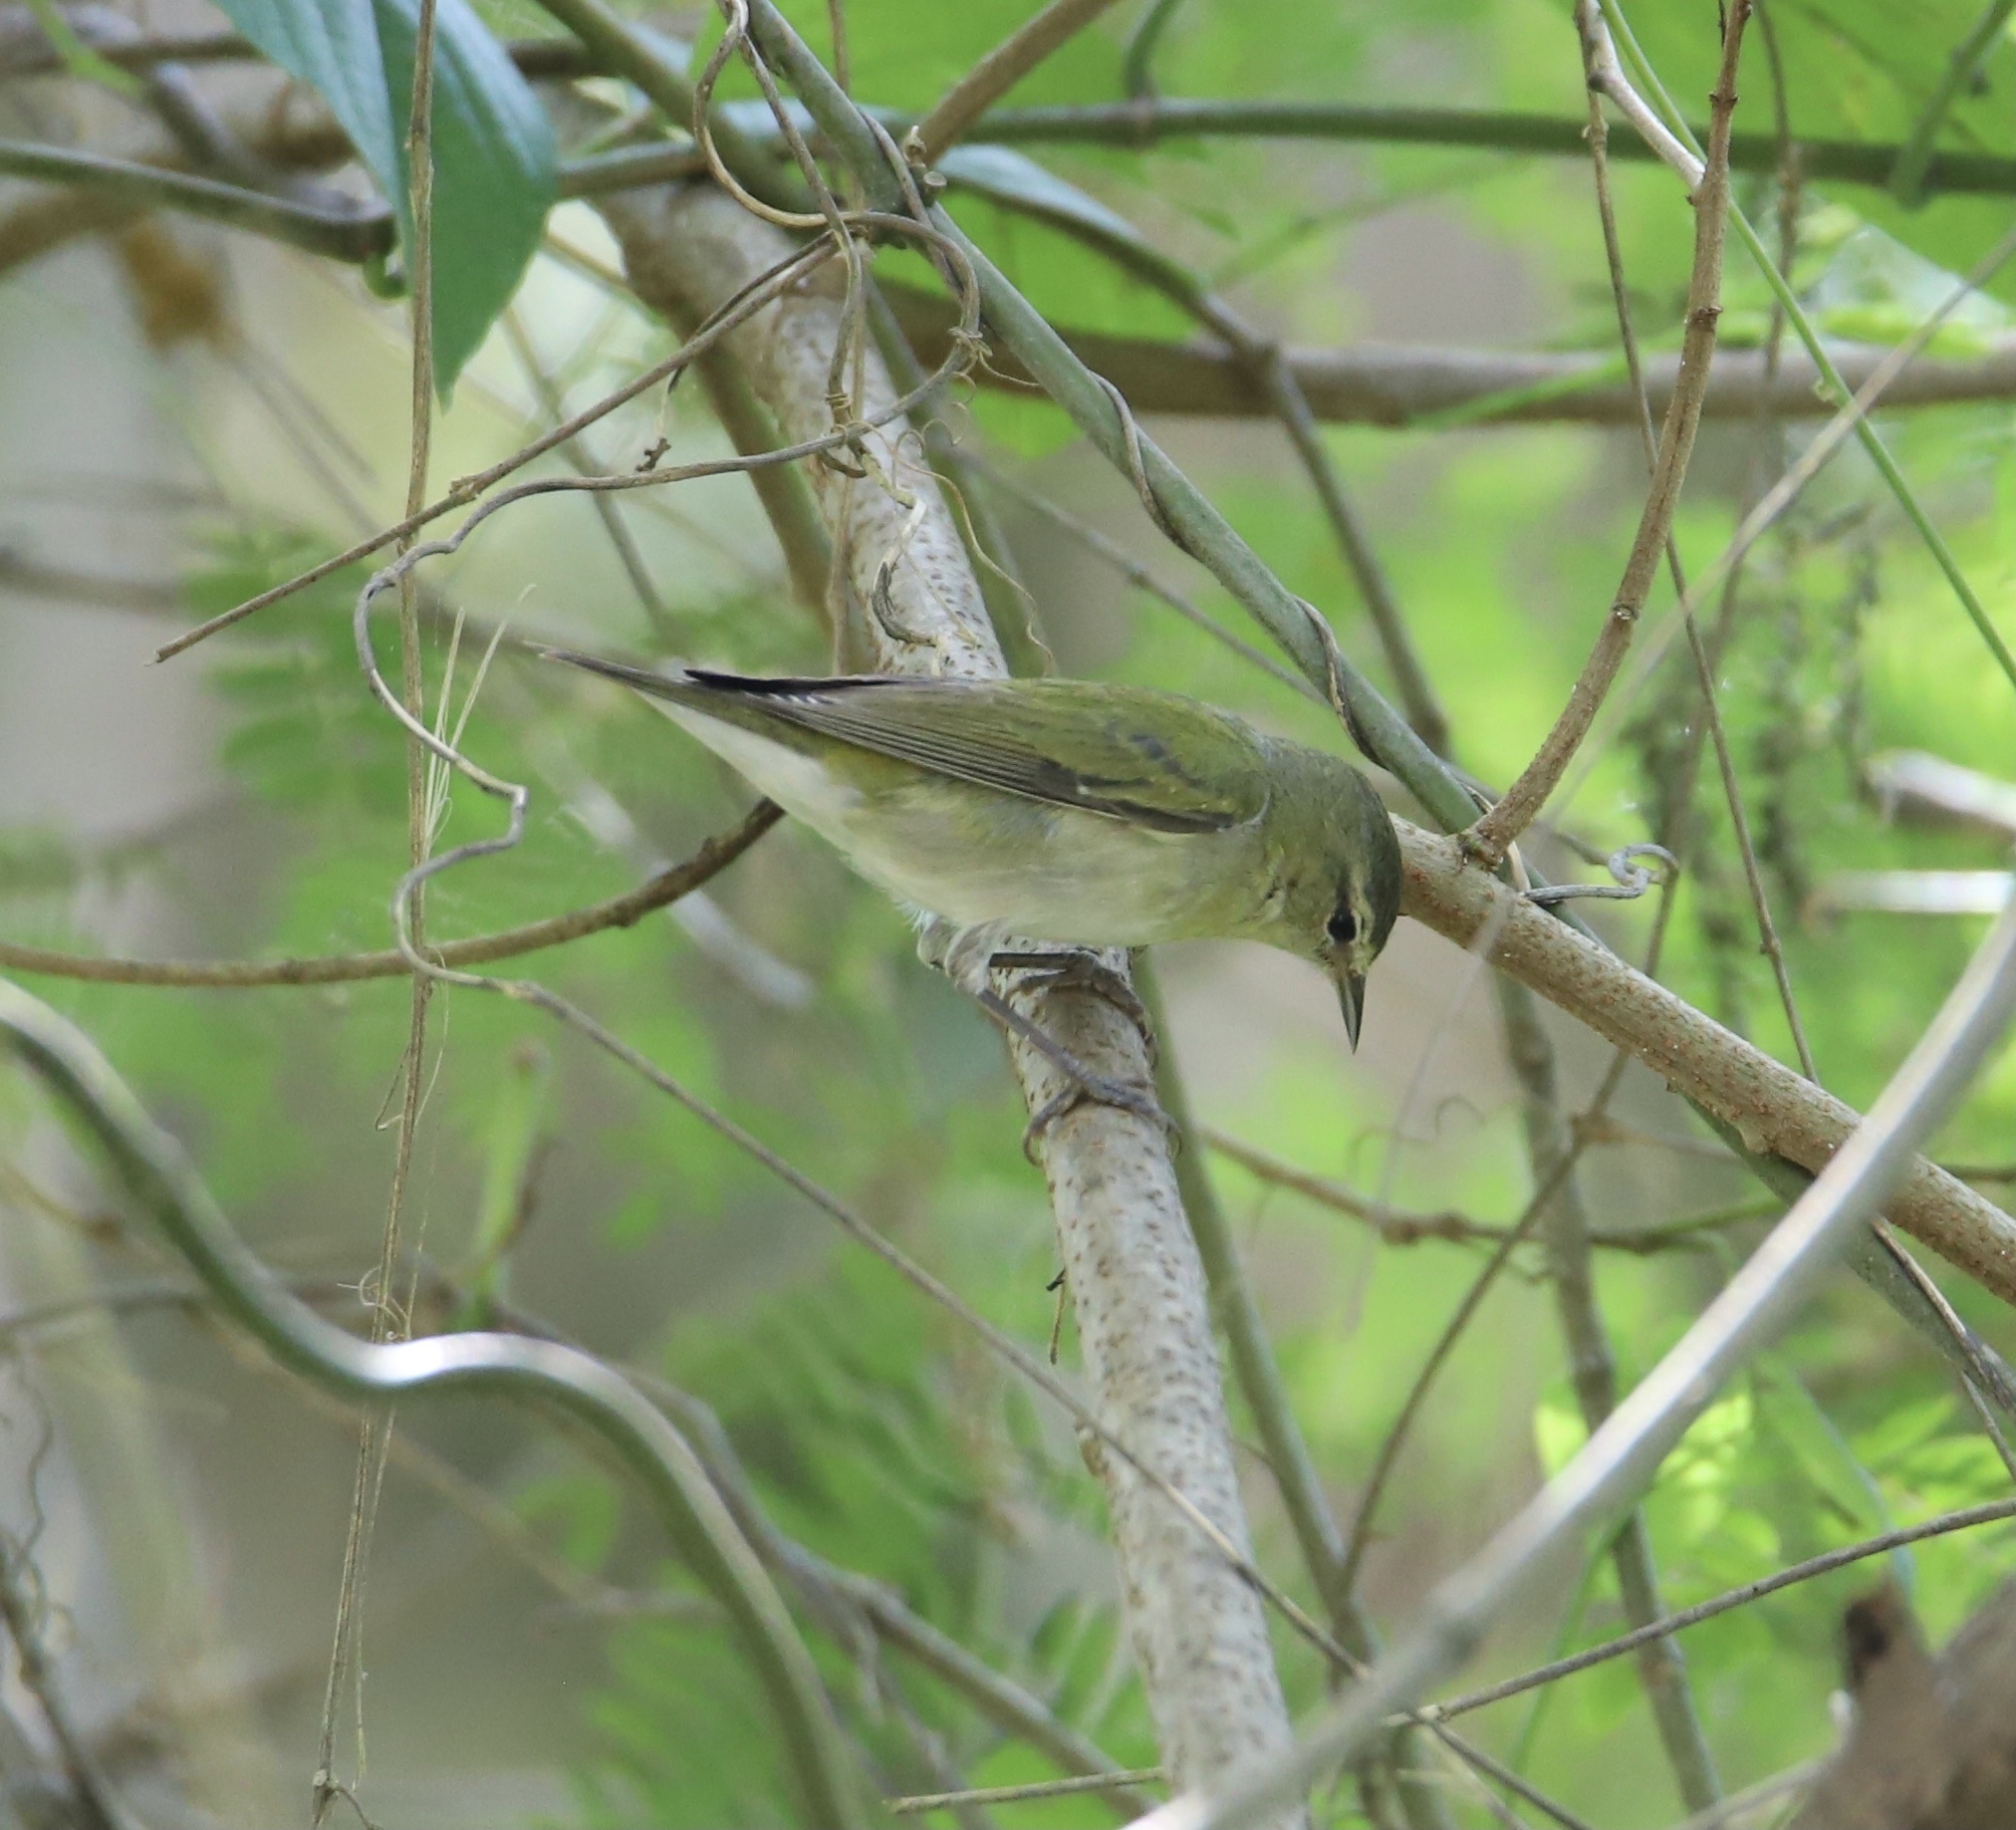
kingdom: Animalia
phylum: Chordata
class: Aves
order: Passeriformes
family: Parulidae
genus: Leiothlypis
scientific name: Leiothlypis peregrina
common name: Tennessee warbler
